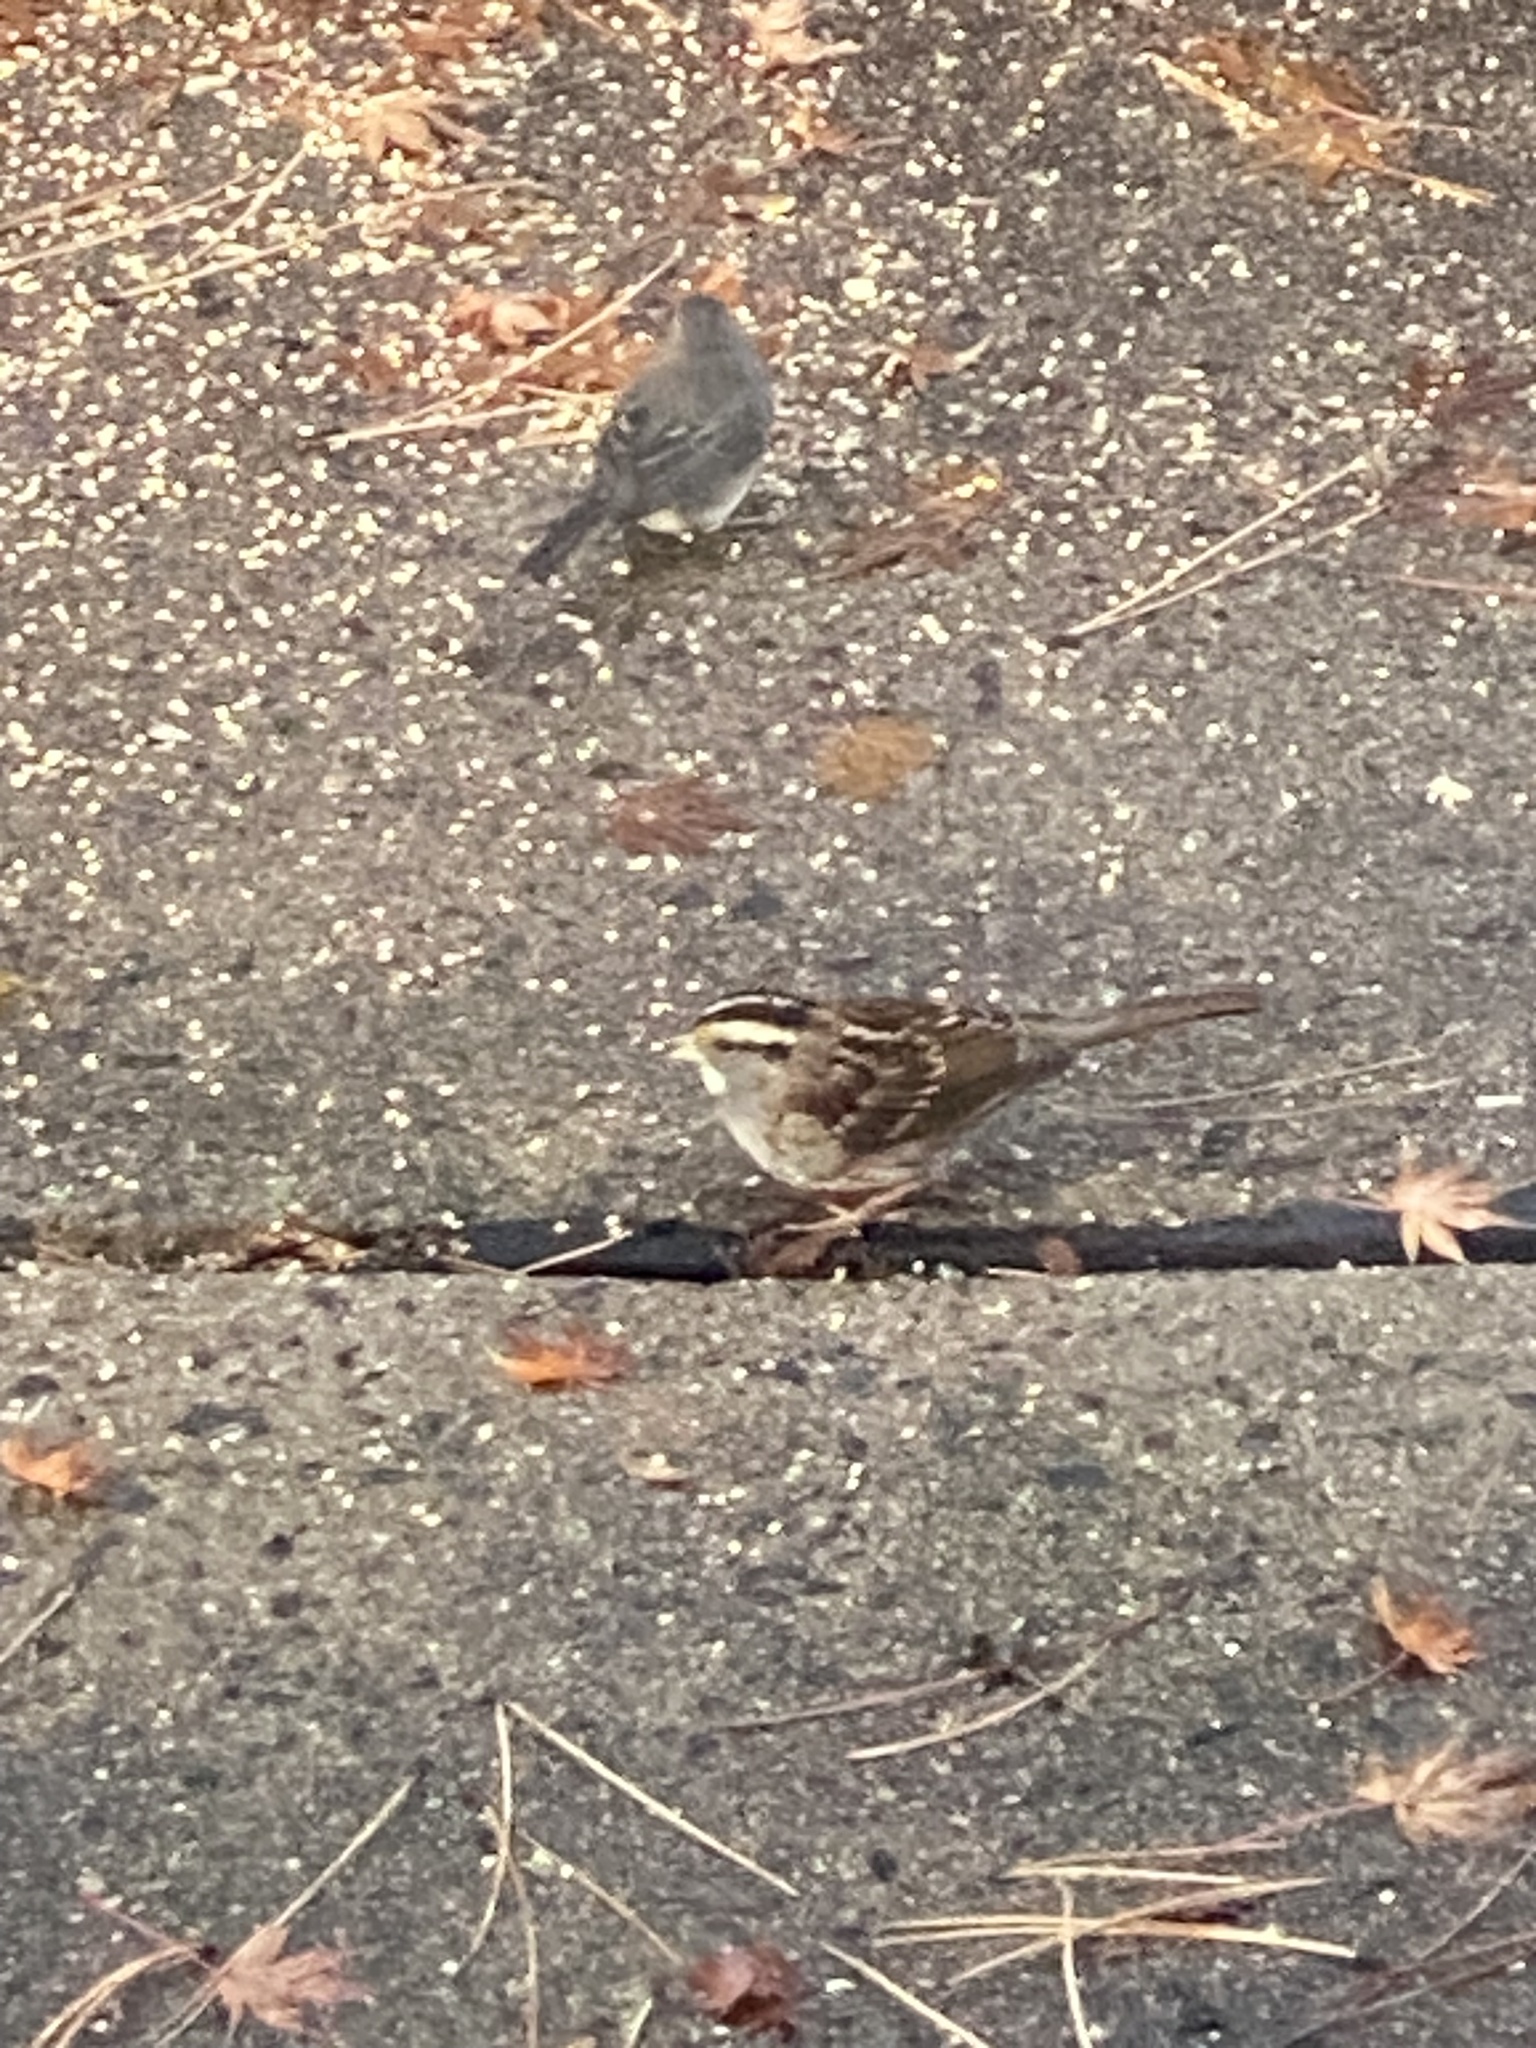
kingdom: Animalia
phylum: Chordata
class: Aves
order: Passeriformes
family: Passerellidae
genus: Zonotrichia
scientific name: Zonotrichia albicollis
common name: White-throated sparrow
